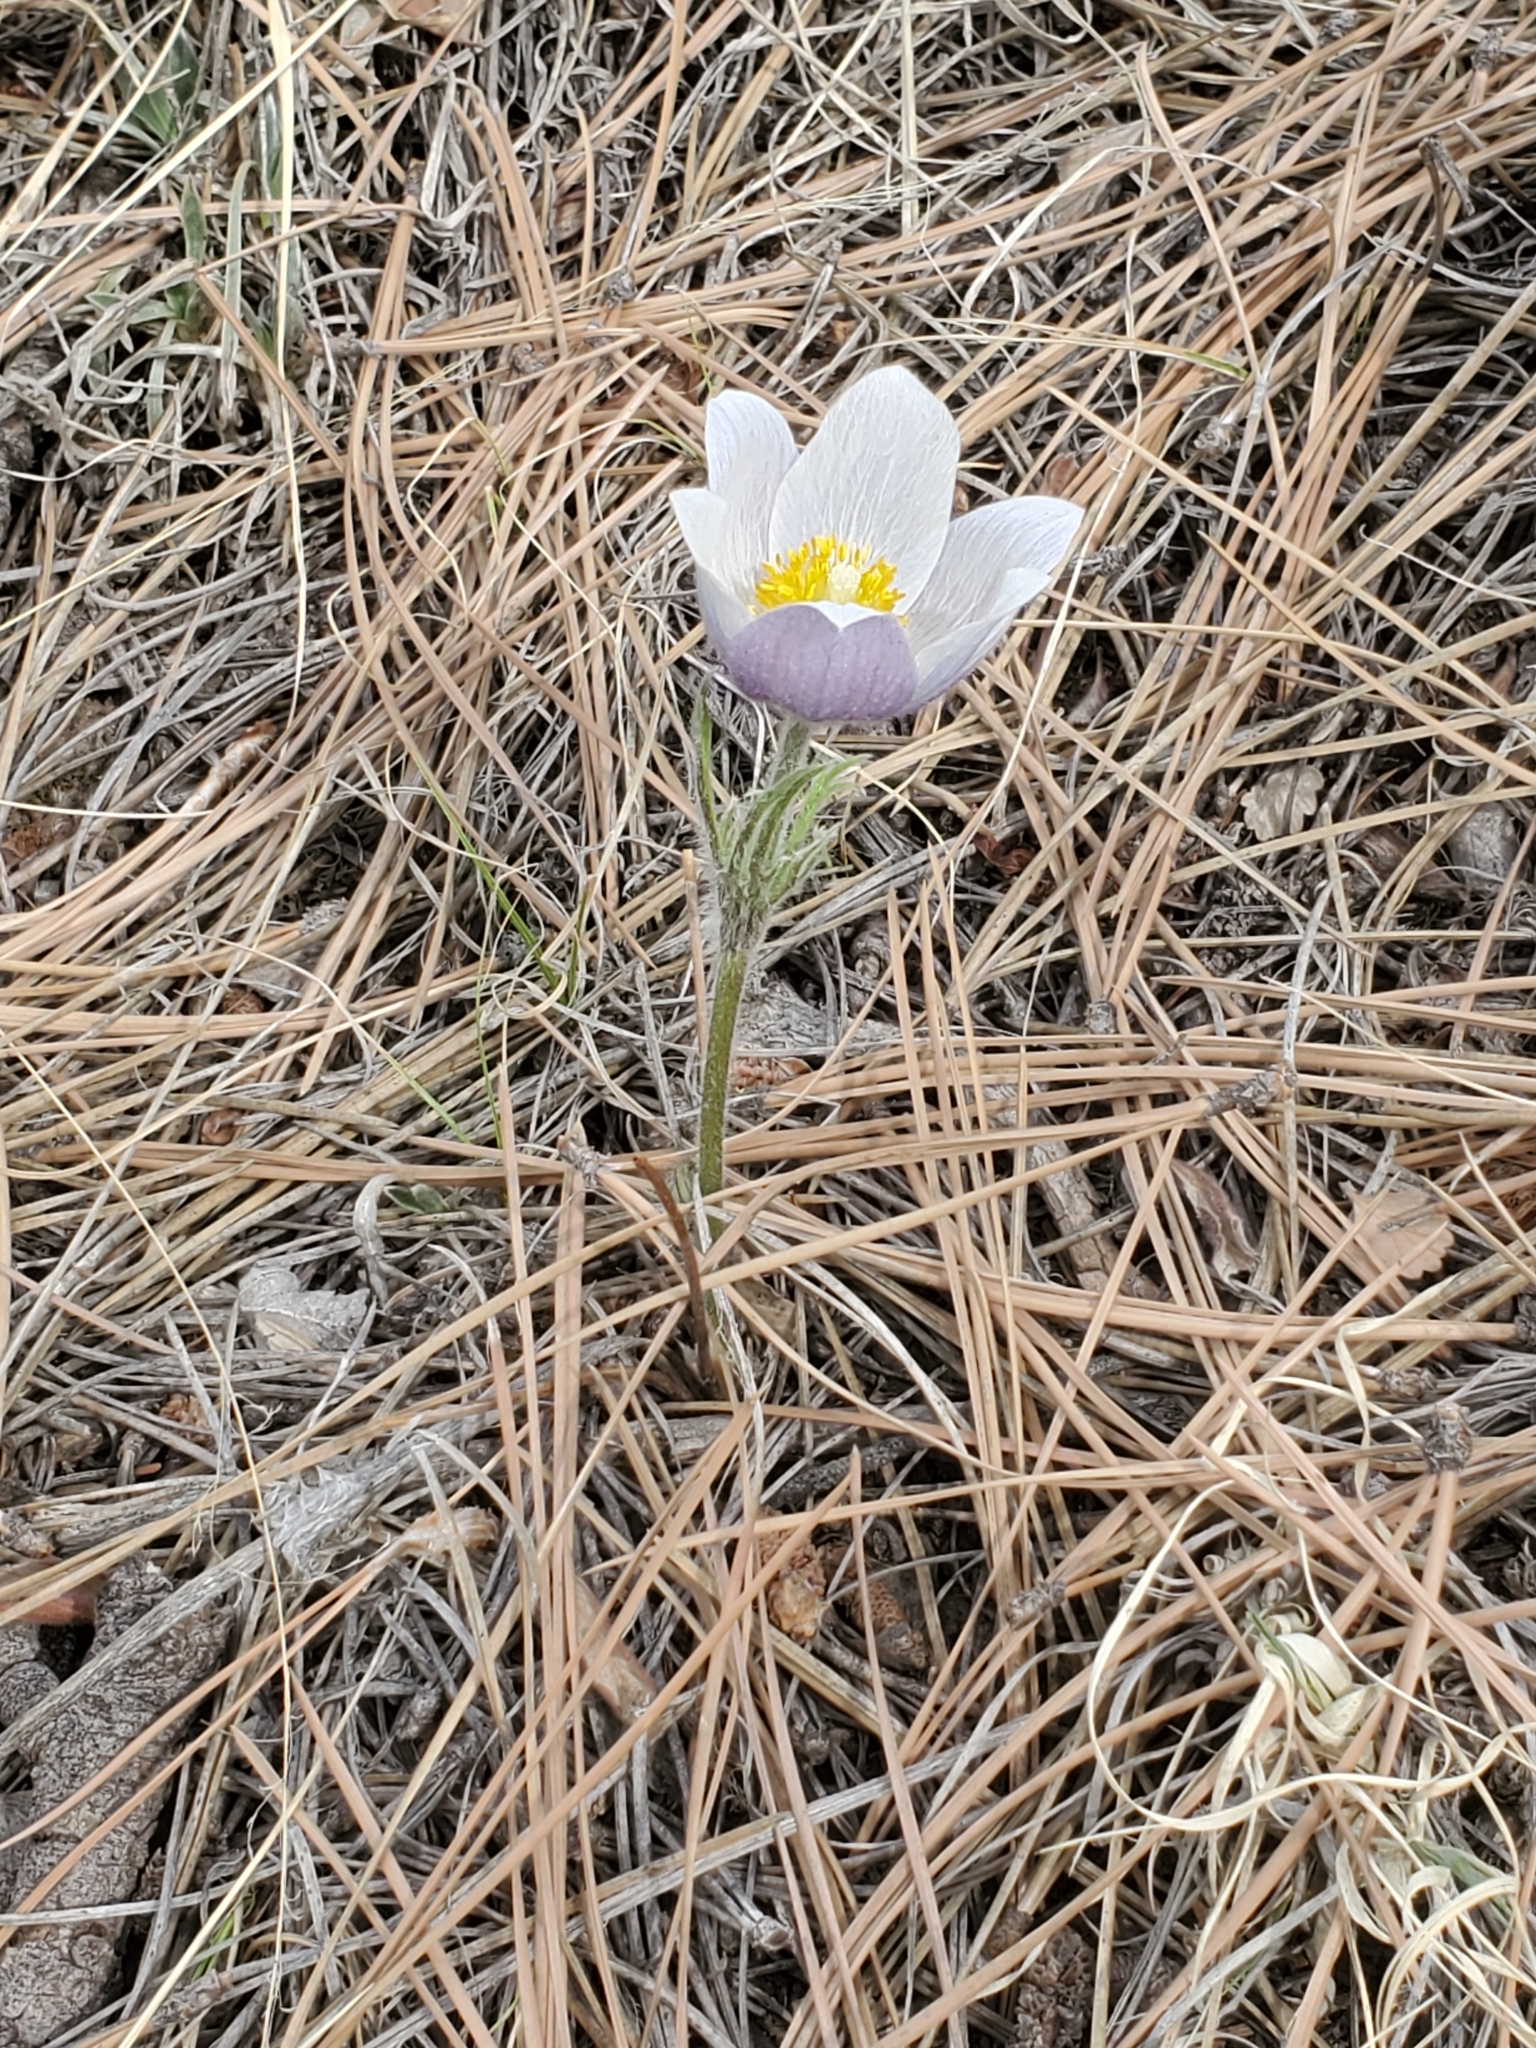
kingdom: Plantae
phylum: Tracheophyta
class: Magnoliopsida
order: Ranunculales
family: Ranunculaceae
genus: Pulsatilla
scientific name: Pulsatilla nuttalliana
